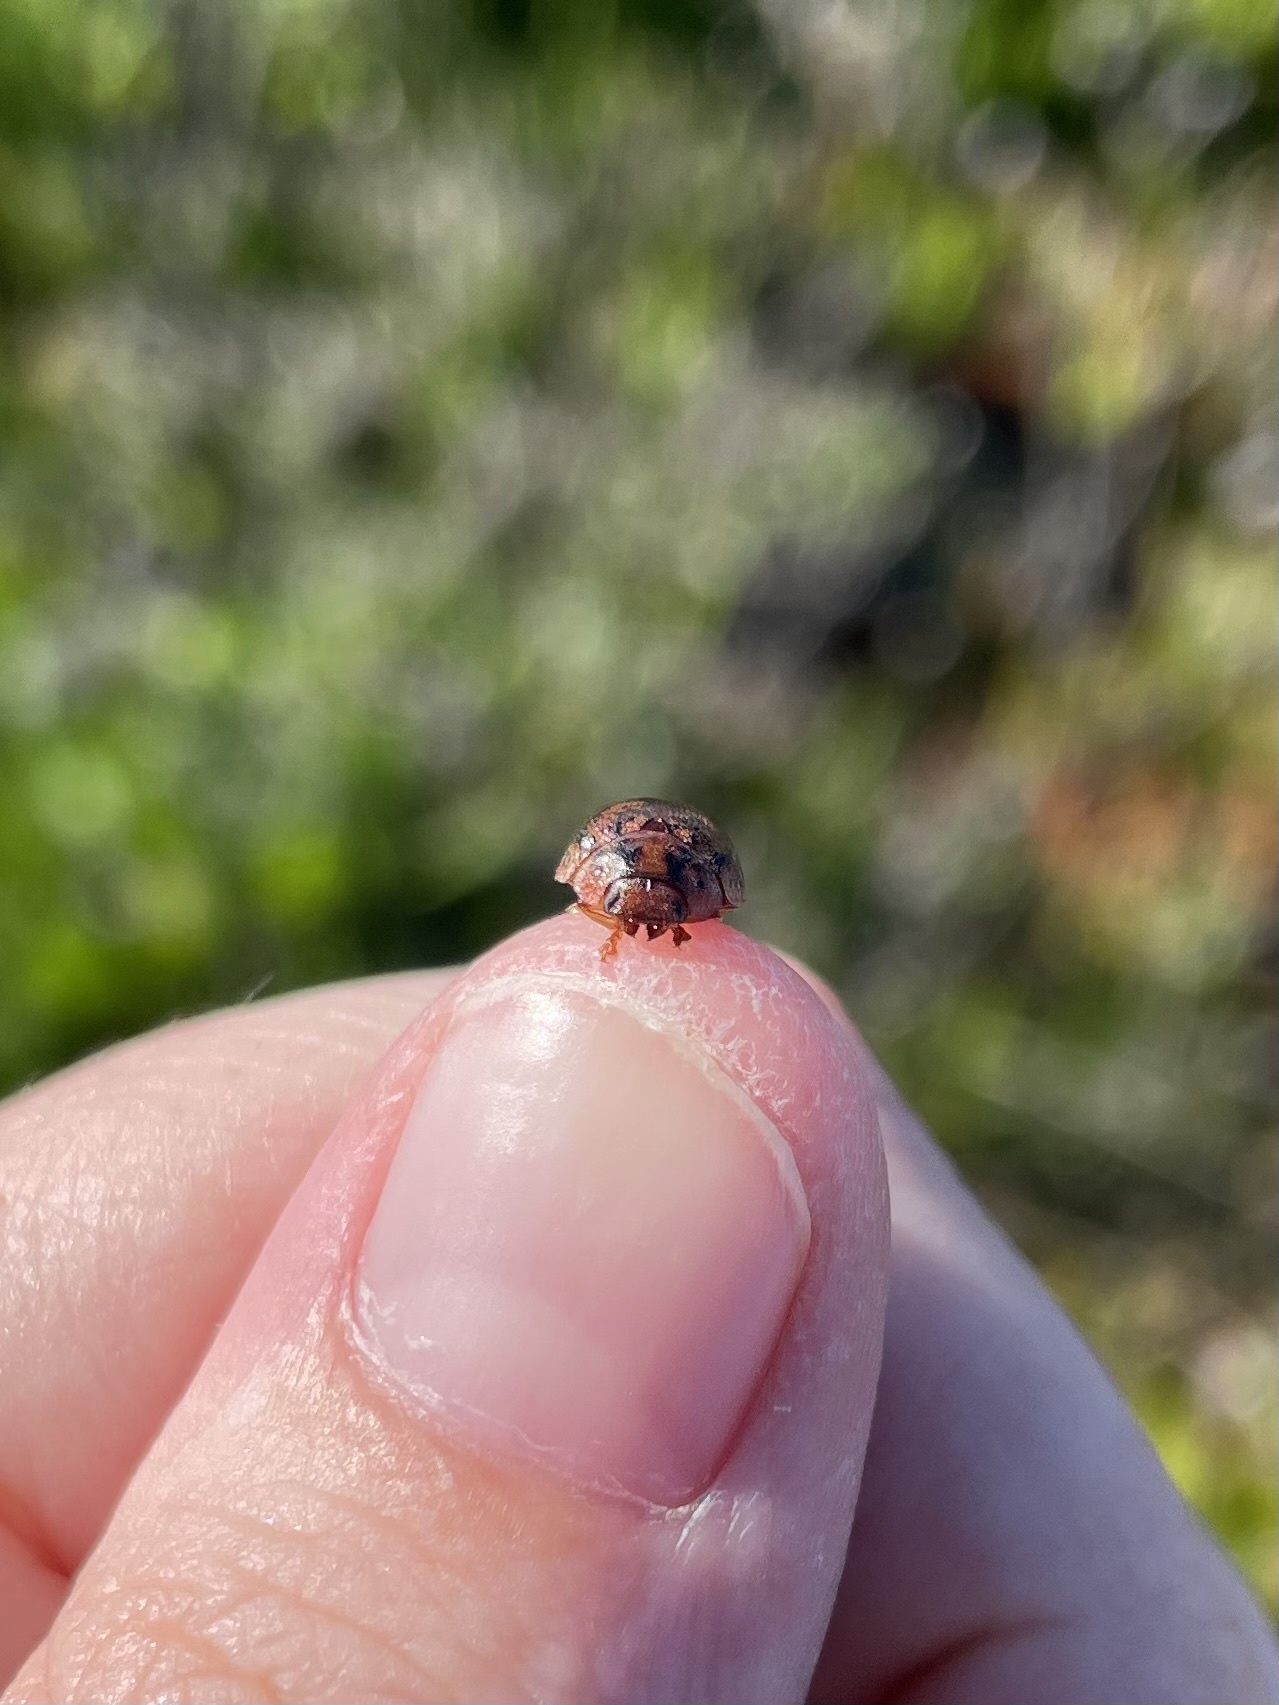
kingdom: Animalia
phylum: Arthropoda
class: Insecta
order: Coleoptera
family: Chrysomelidae
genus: Trachymela
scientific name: Trachymela sloanei
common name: Australian tortoise beetle
